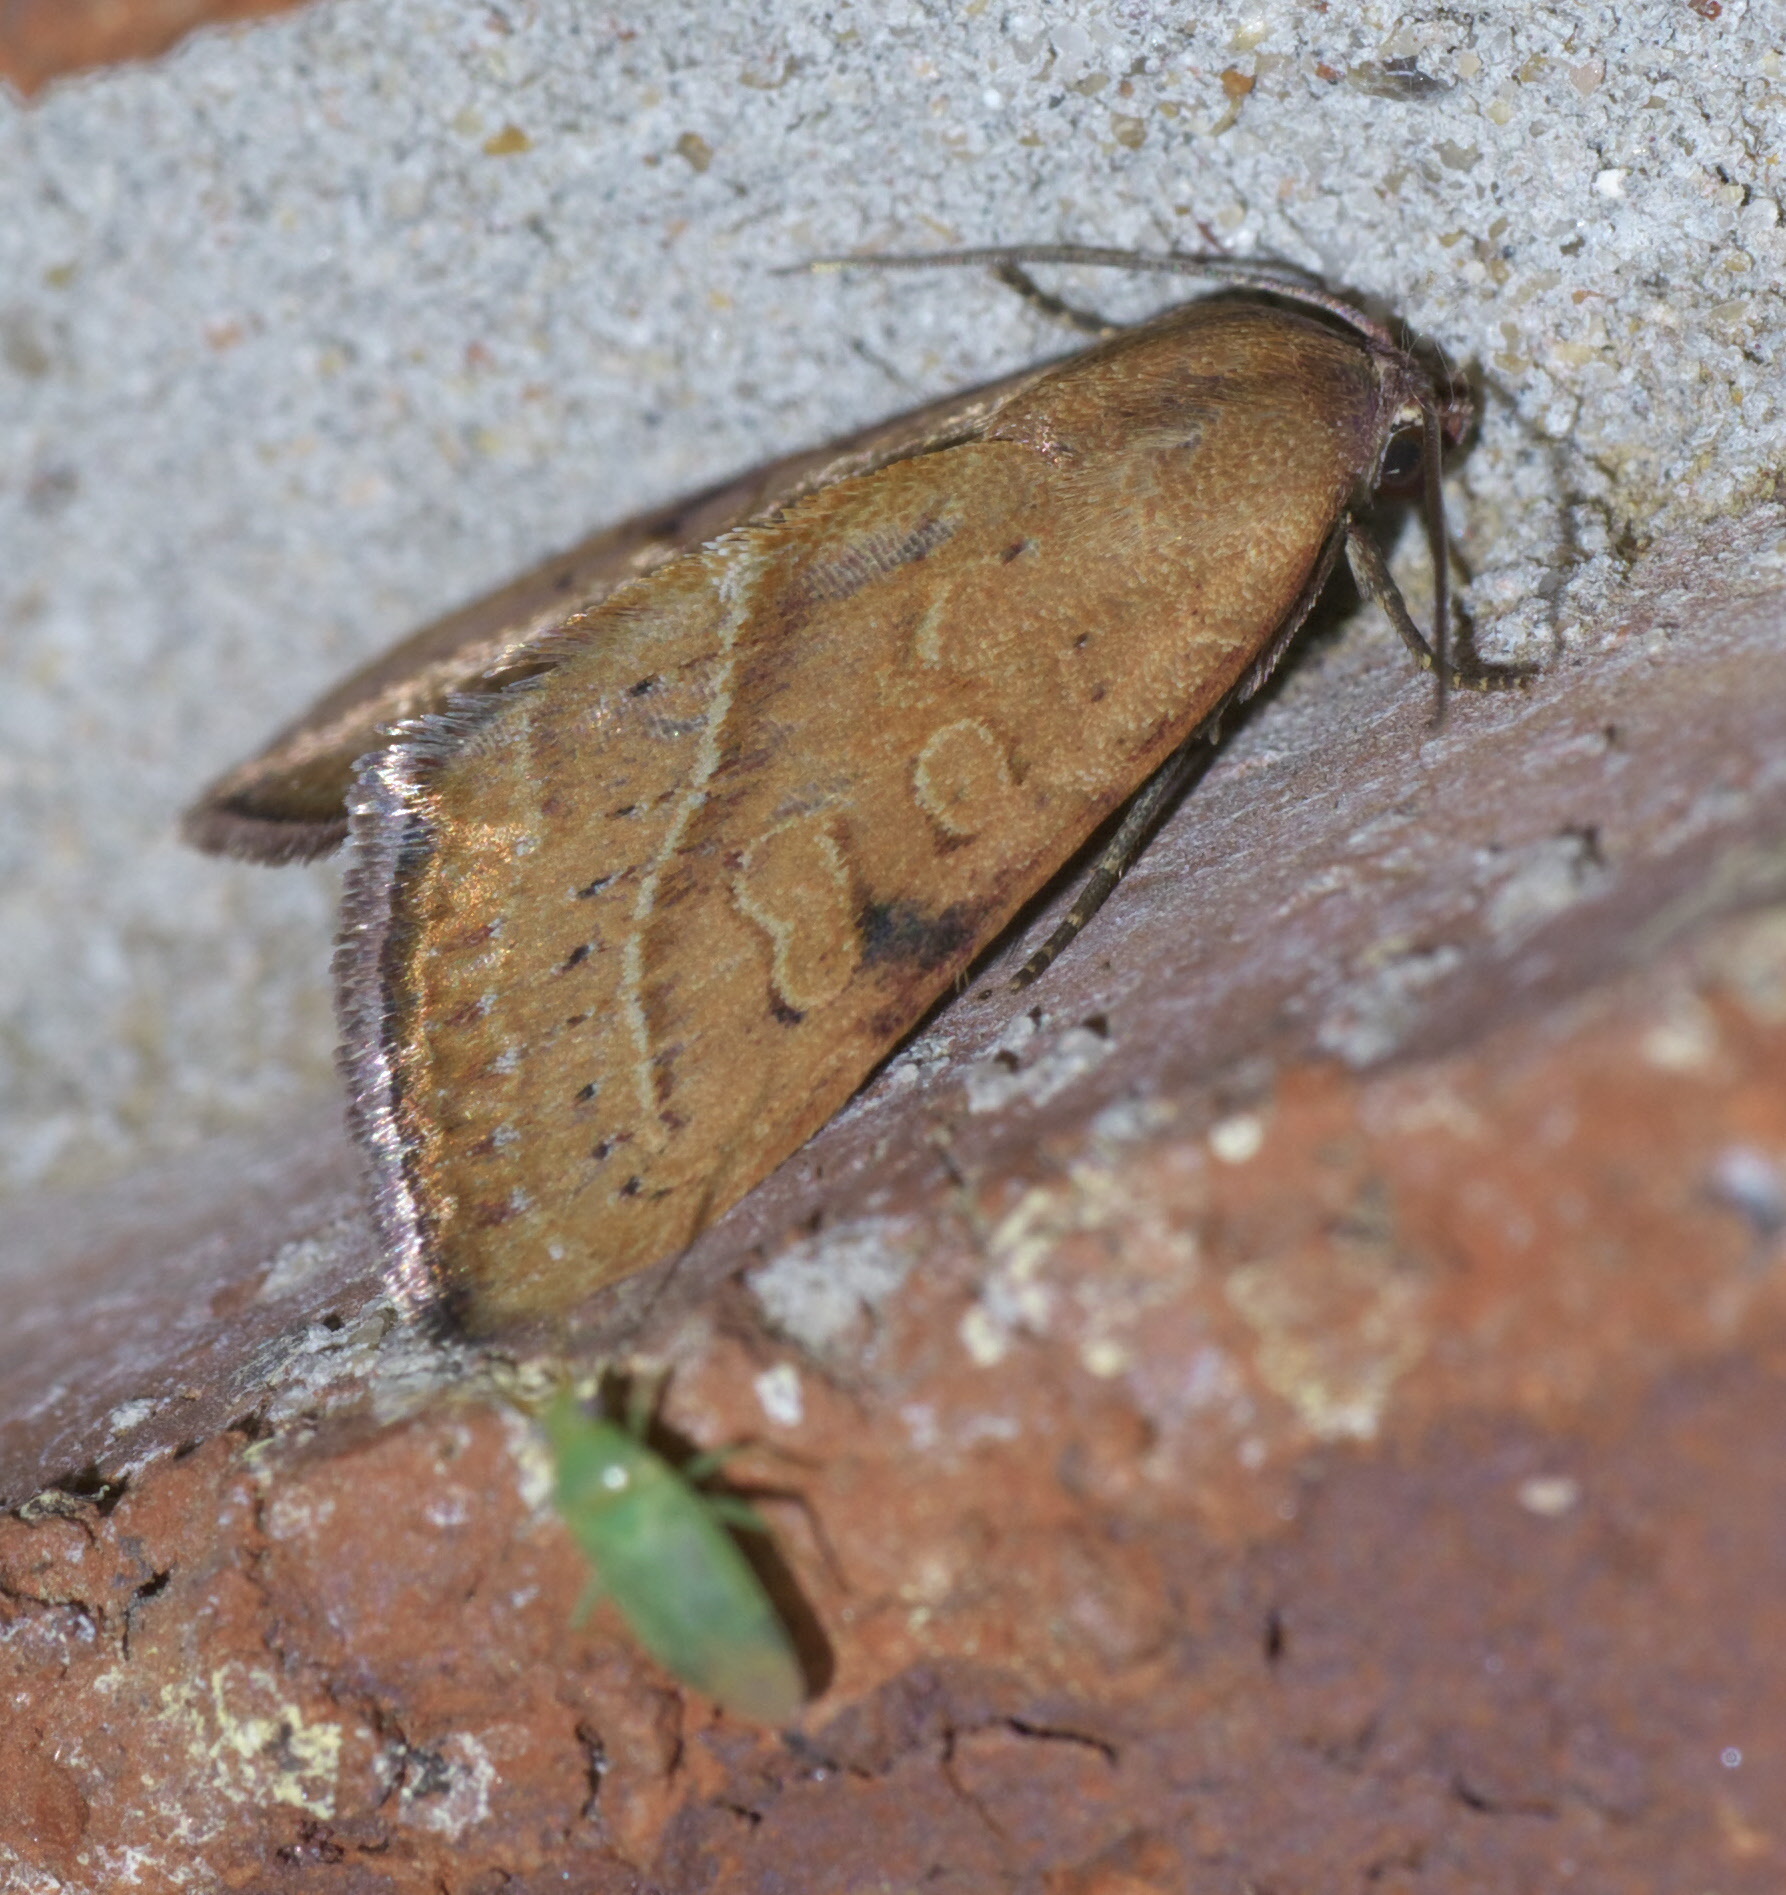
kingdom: Animalia
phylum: Arthropoda
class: Insecta
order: Lepidoptera
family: Noctuidae
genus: Galgula
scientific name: Galgula partita
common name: Wedgeling
